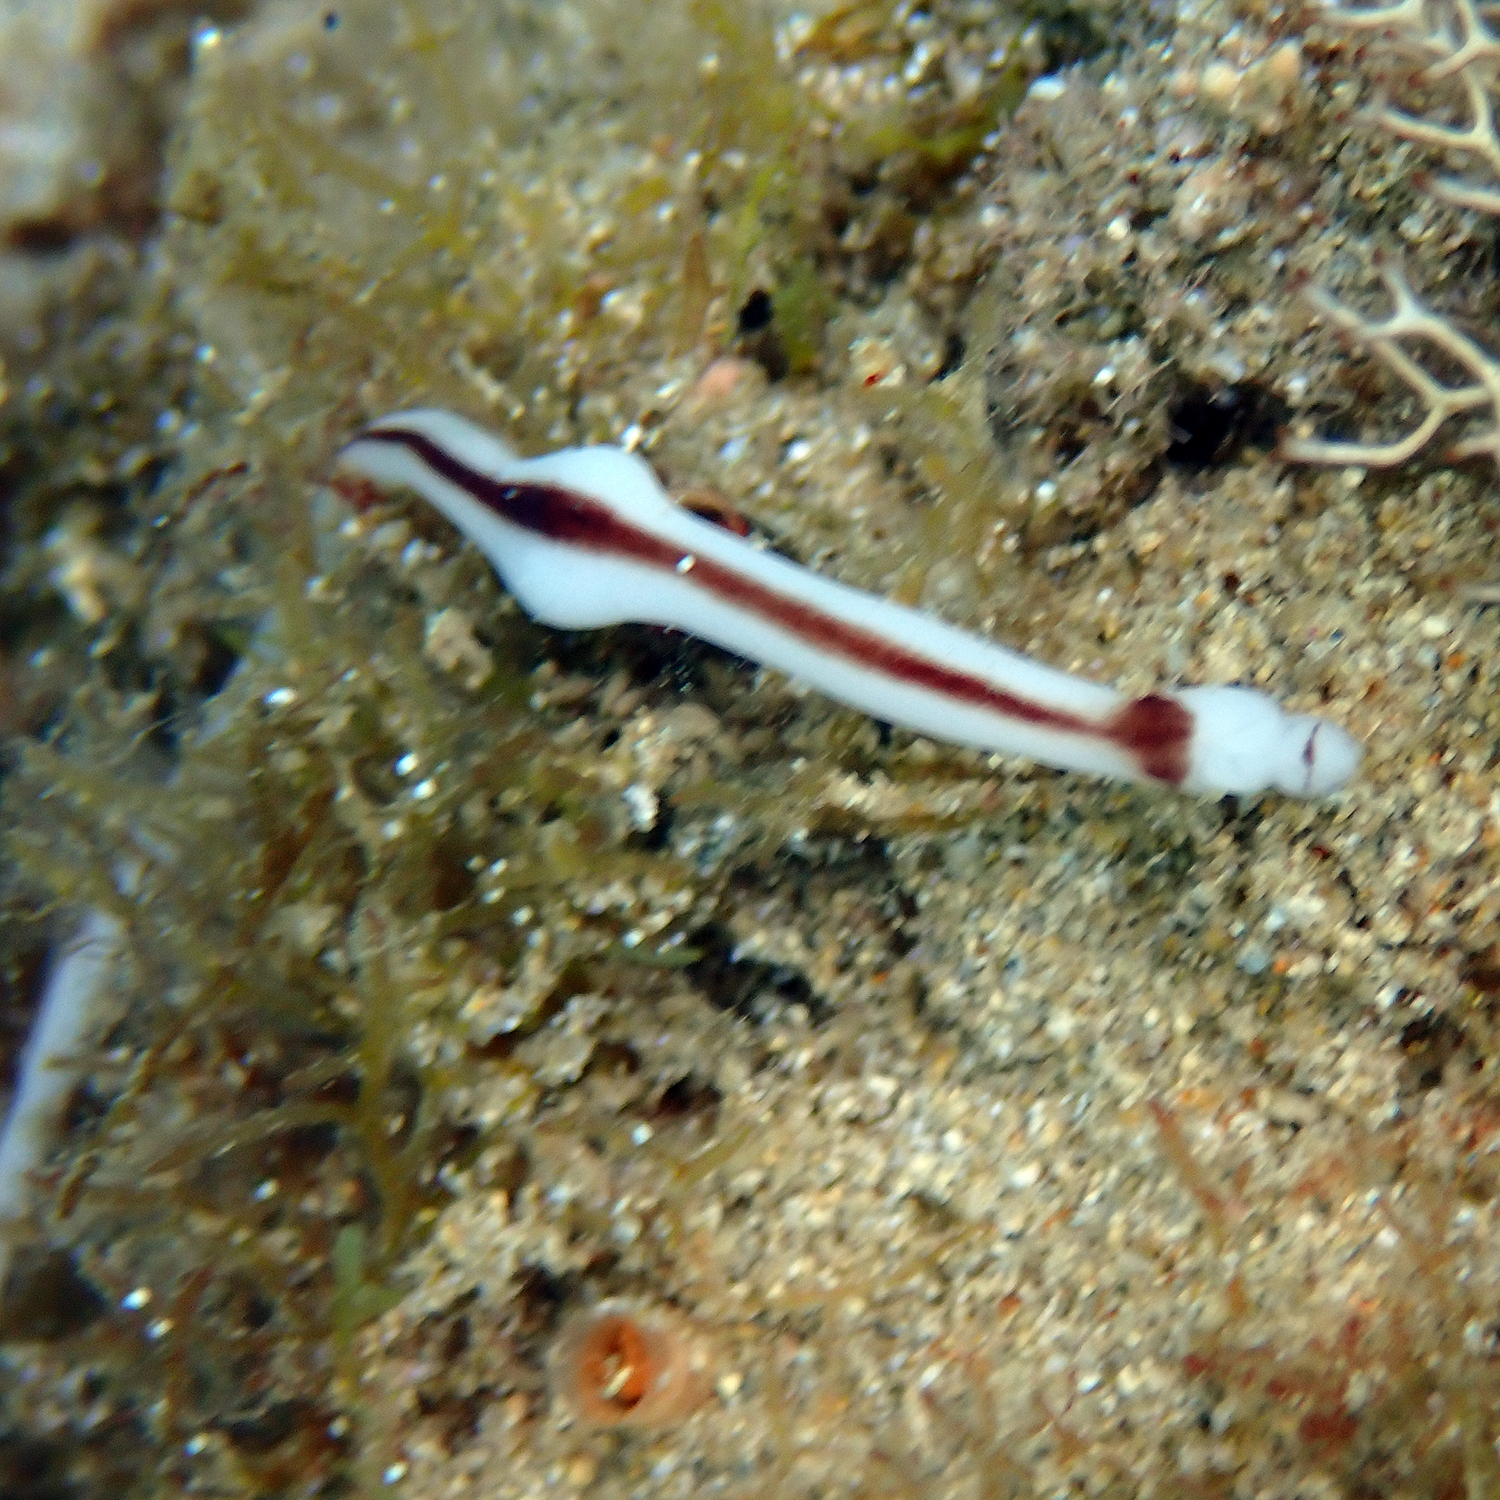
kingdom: Animalia
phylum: Nemertea
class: Pilidiophora
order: Heteronemertea
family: Valenciniidae
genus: Baseodiscus
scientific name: Baseodiscus hemprichii
